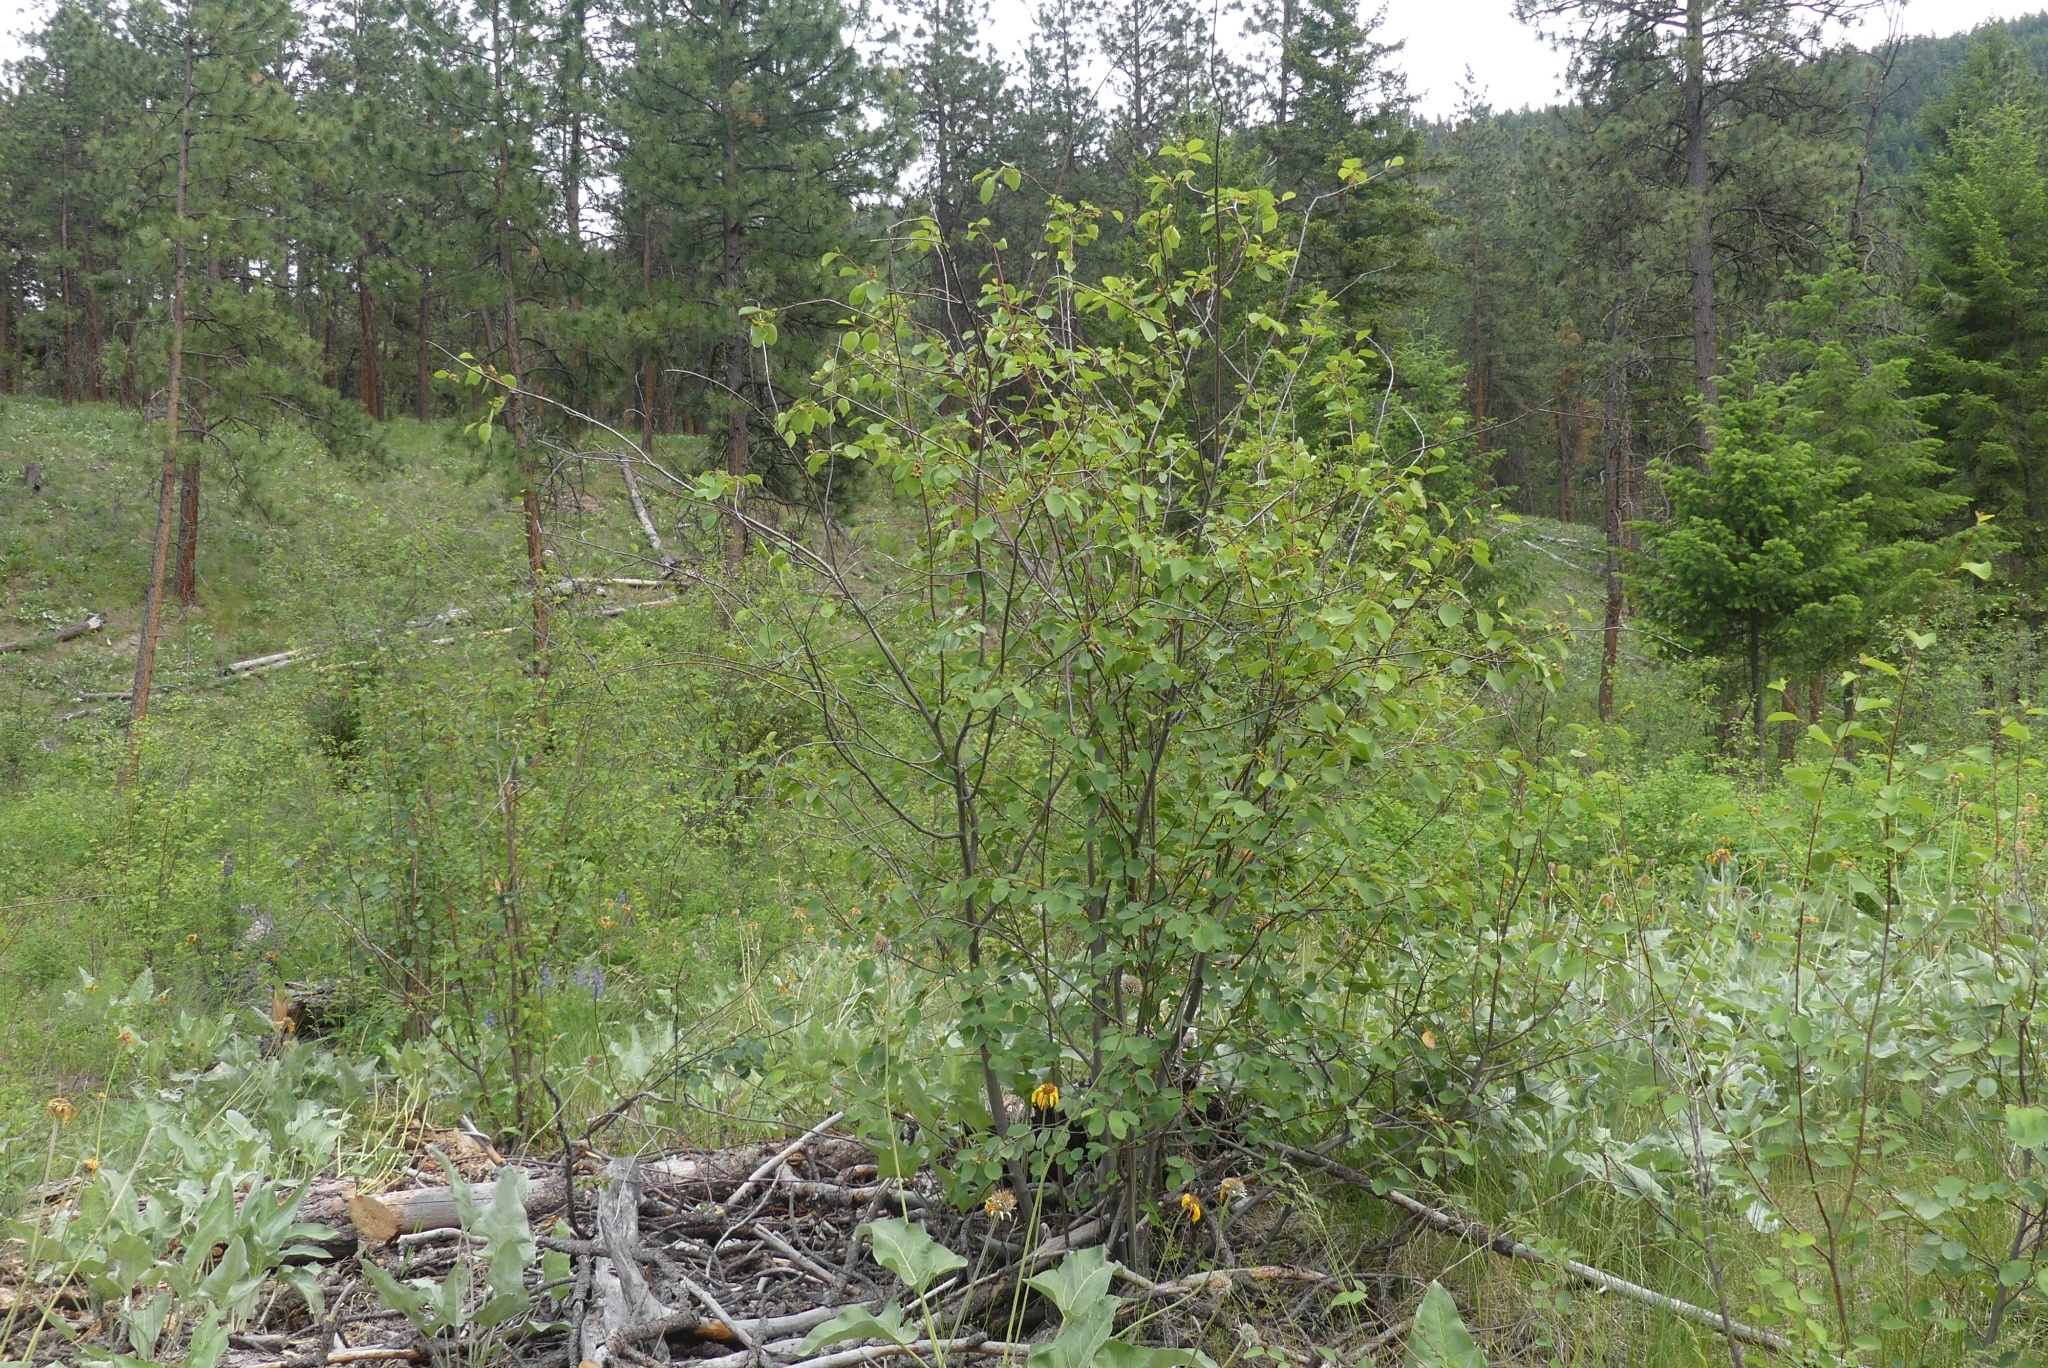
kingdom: Plantae
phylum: Tracheophyta
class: Magnoliopsida
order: Rosales
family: Rosaceae
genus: Amelanchier
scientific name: Amelanchier alnifolia
